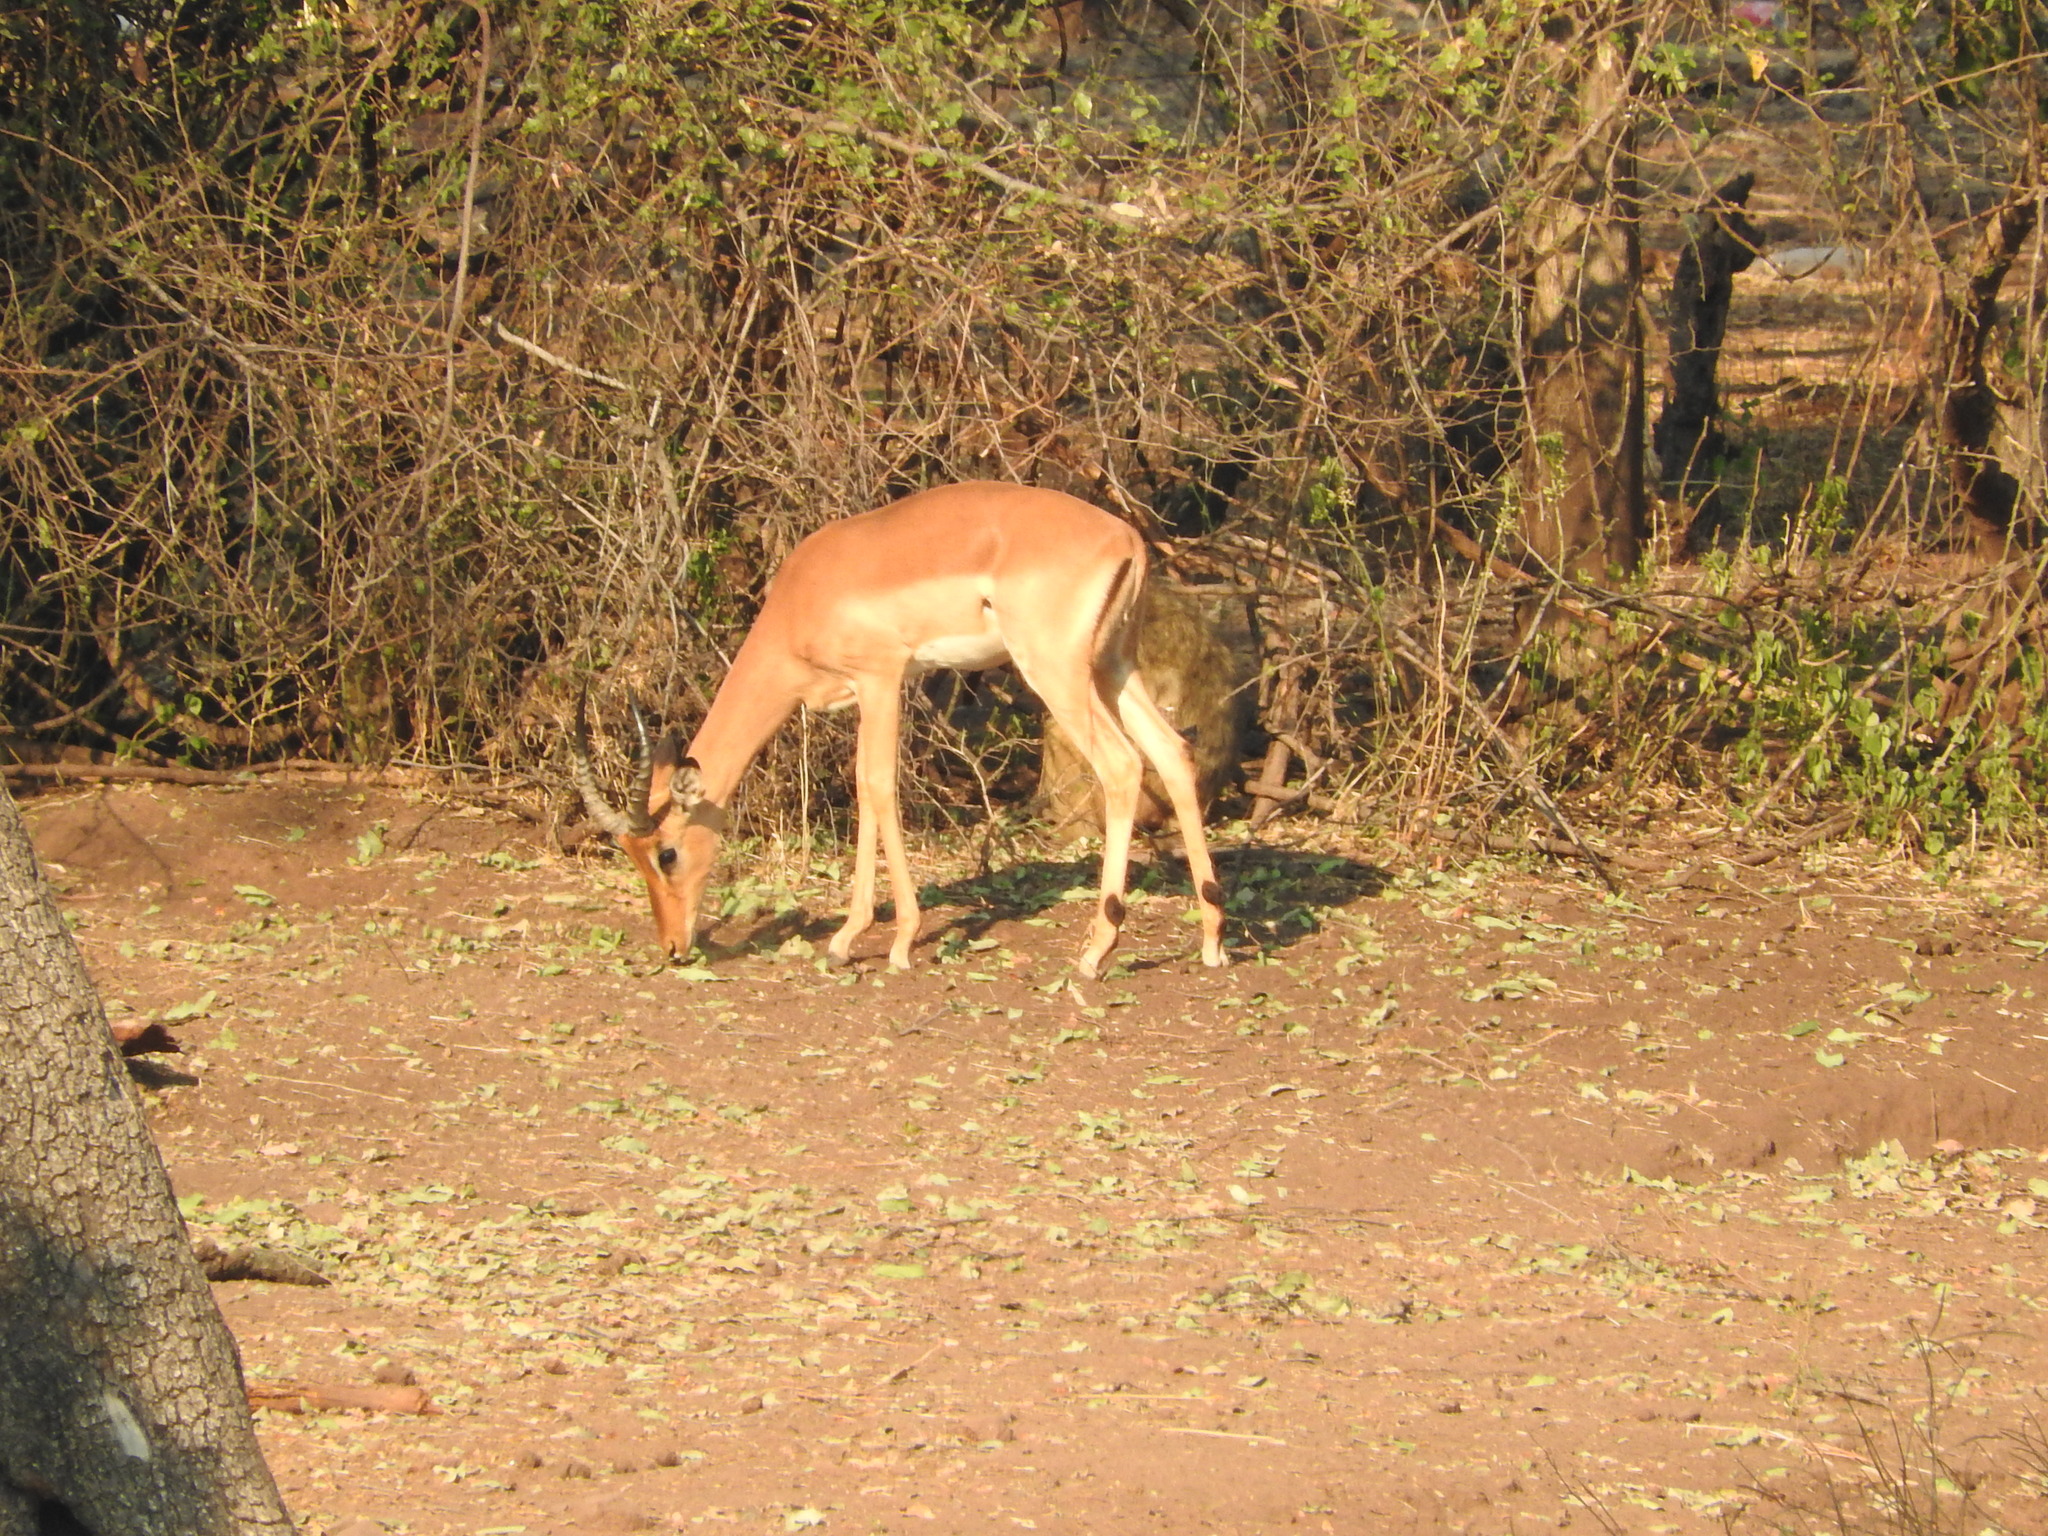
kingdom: Animalia
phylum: Chordata
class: Mammalia
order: Artiodactyla
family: Bovidae
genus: Aepyceros
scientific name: Aepyceros melampus
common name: Impala
